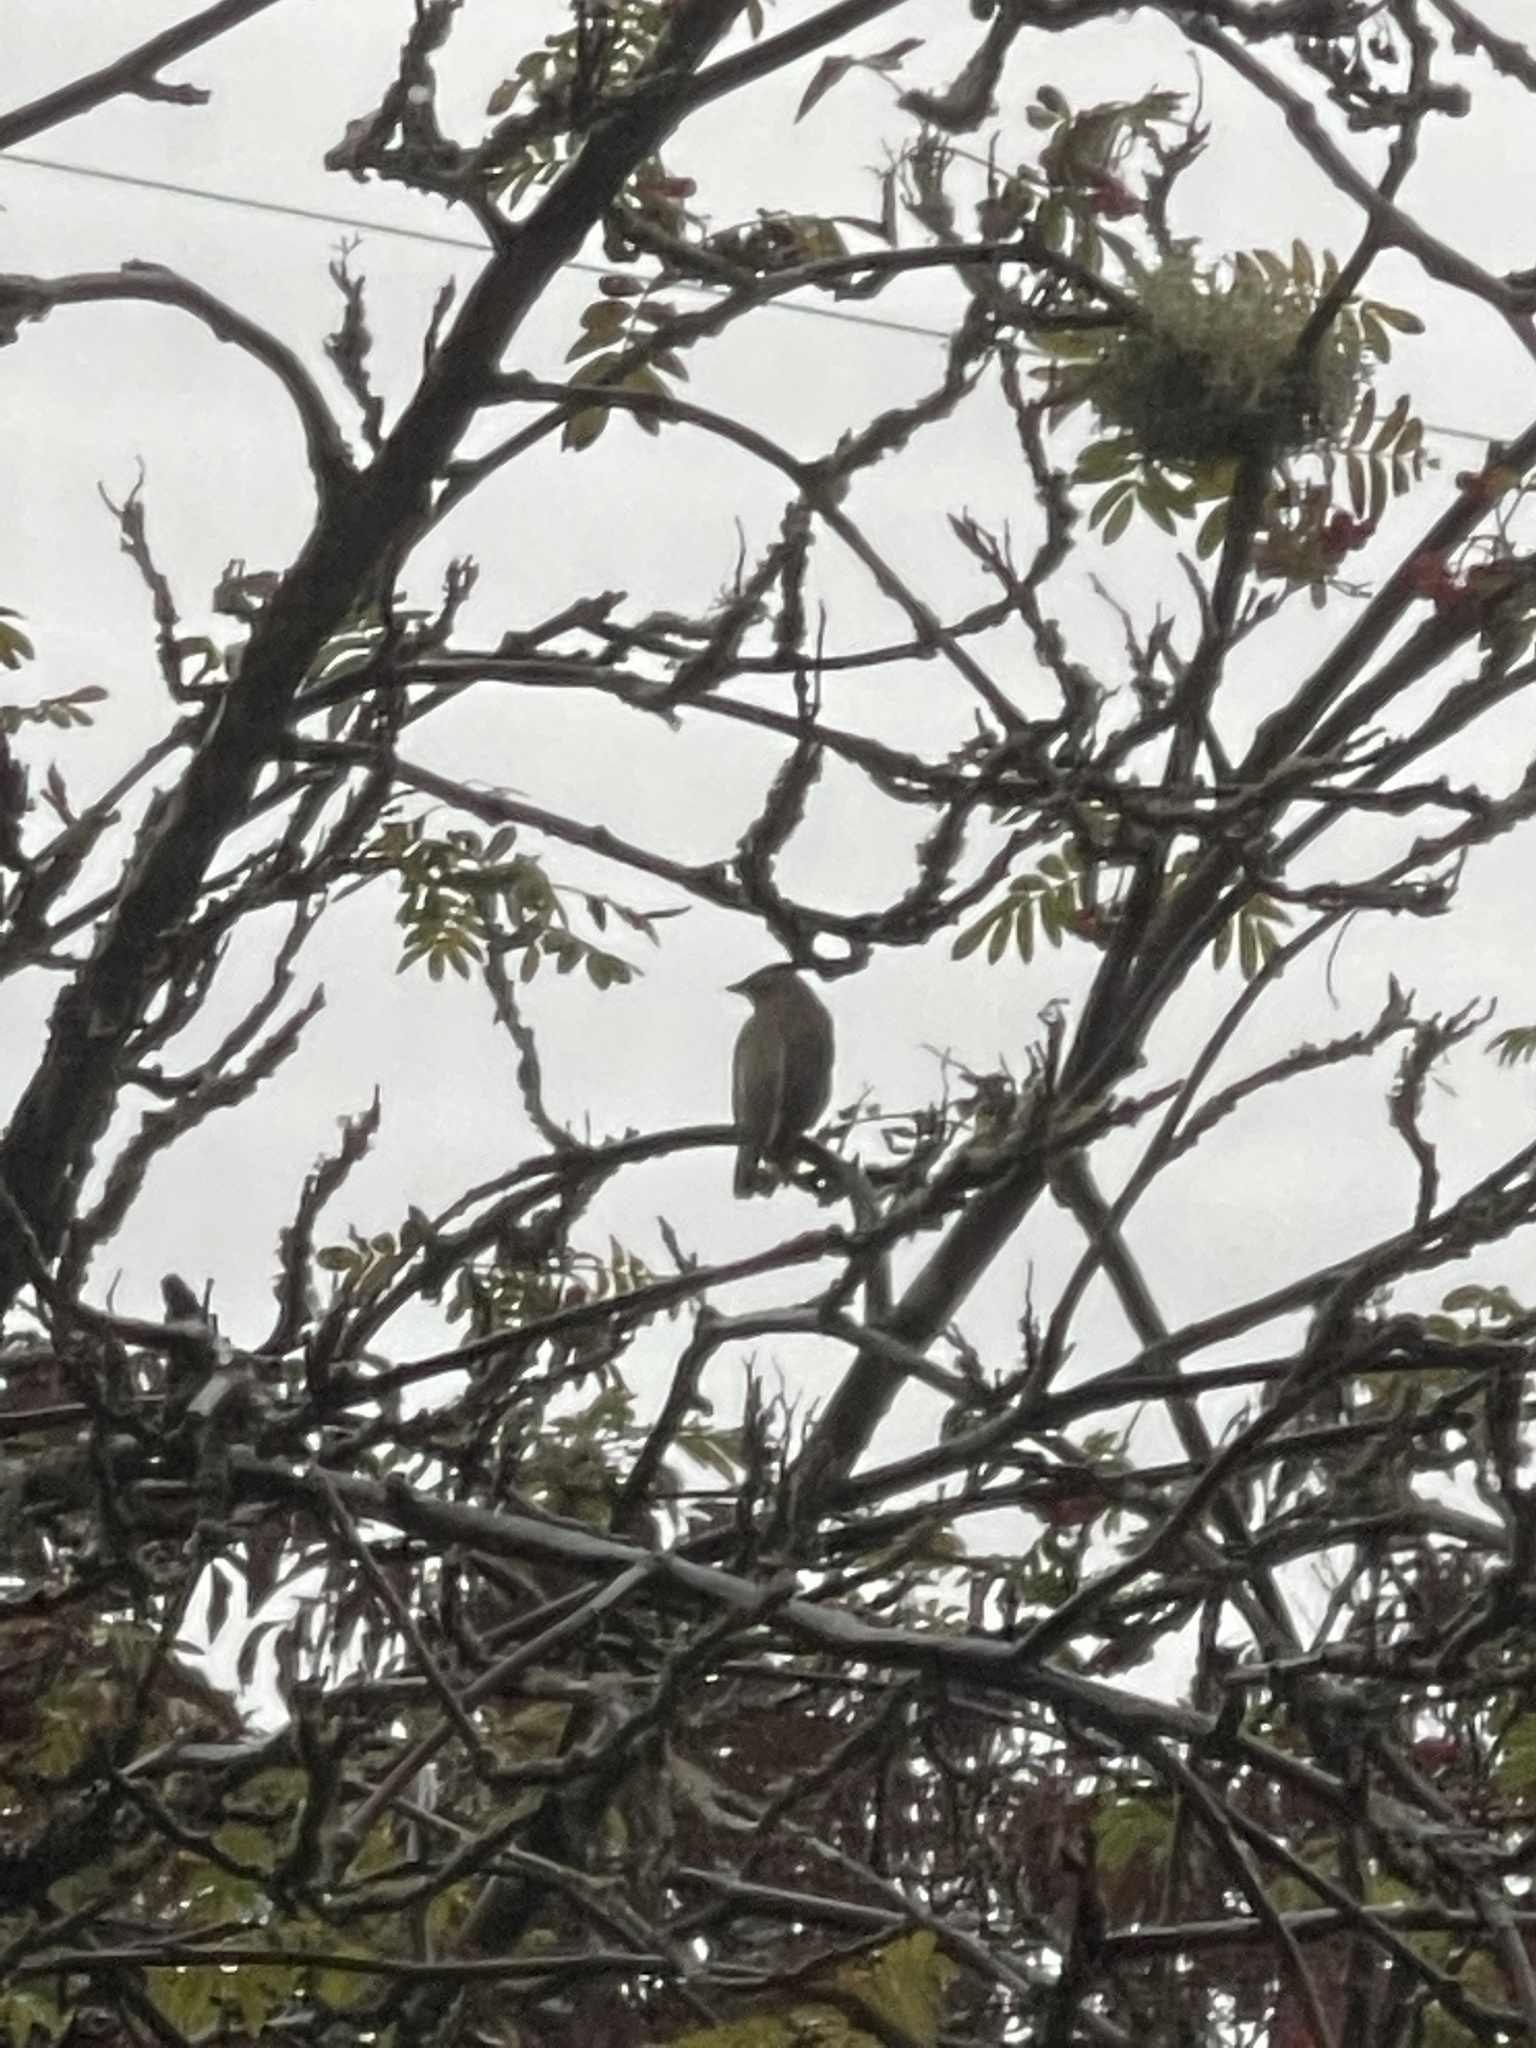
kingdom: Animalia
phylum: Chordata
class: Aves
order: Passeriformes
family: Bombycillidae
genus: Bombycilla
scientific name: Bombycilla cedrorum
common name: Cedar waxwing
